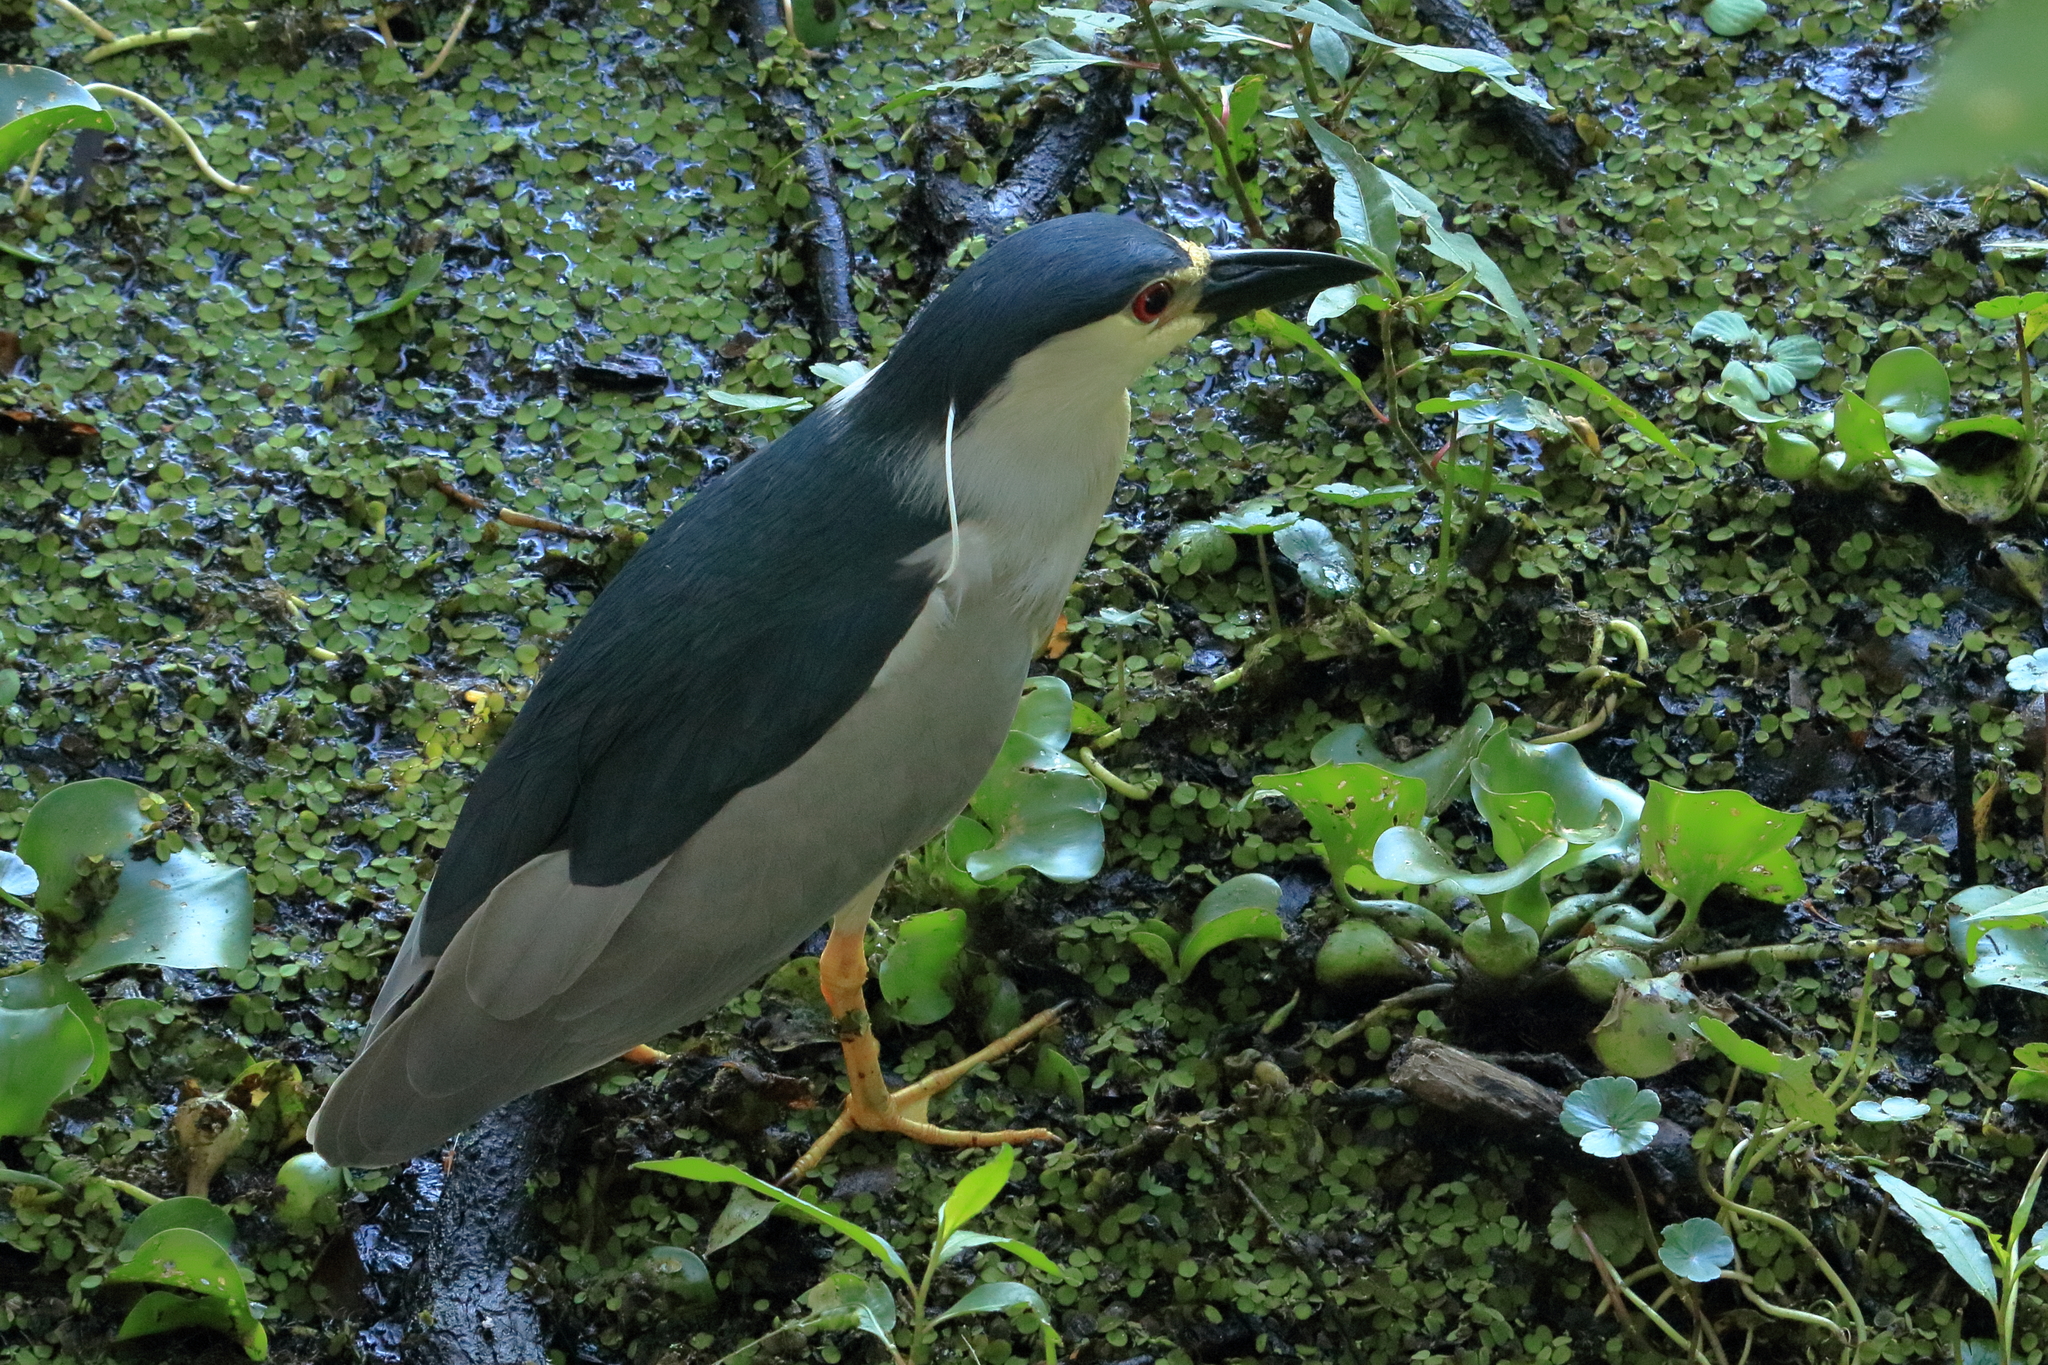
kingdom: Animalia
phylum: Chordata
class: Aves
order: Pelecaniformes
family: Ardeidae
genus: Nycticorax
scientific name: Nycticorax nycticorax
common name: Black-crowned night heron
